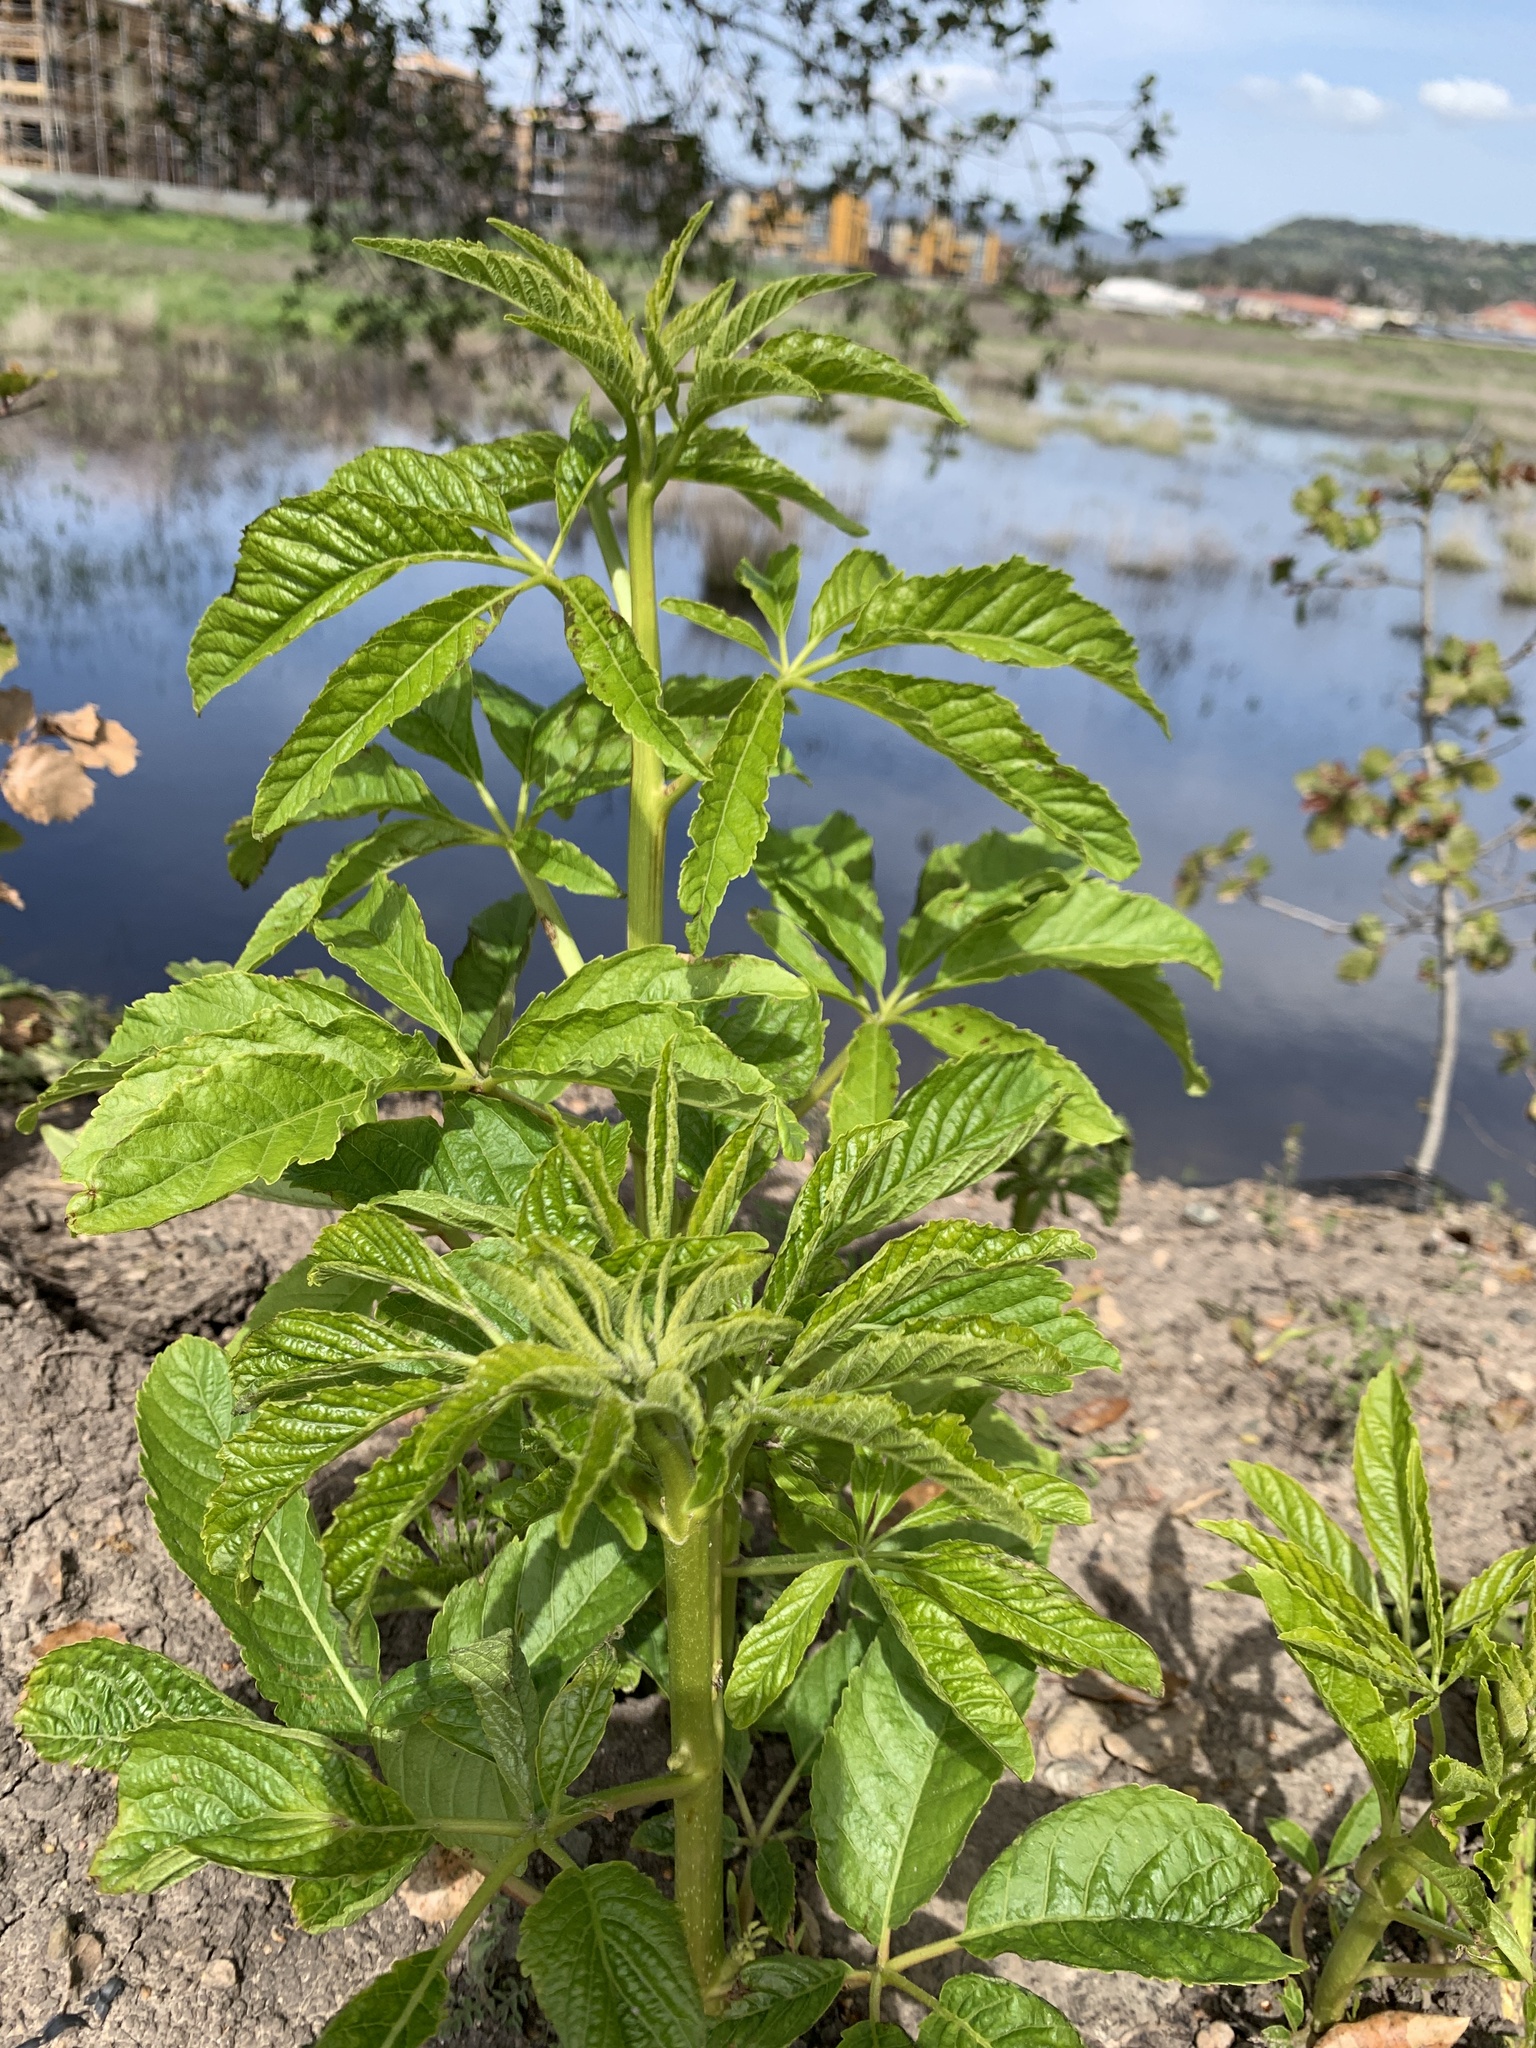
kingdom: Plantae
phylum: Tracheophyta
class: Magnoliopsida
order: Sapindales
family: Sapindaceae
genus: Aesculus
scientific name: Aesculus californica
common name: California buckeye
